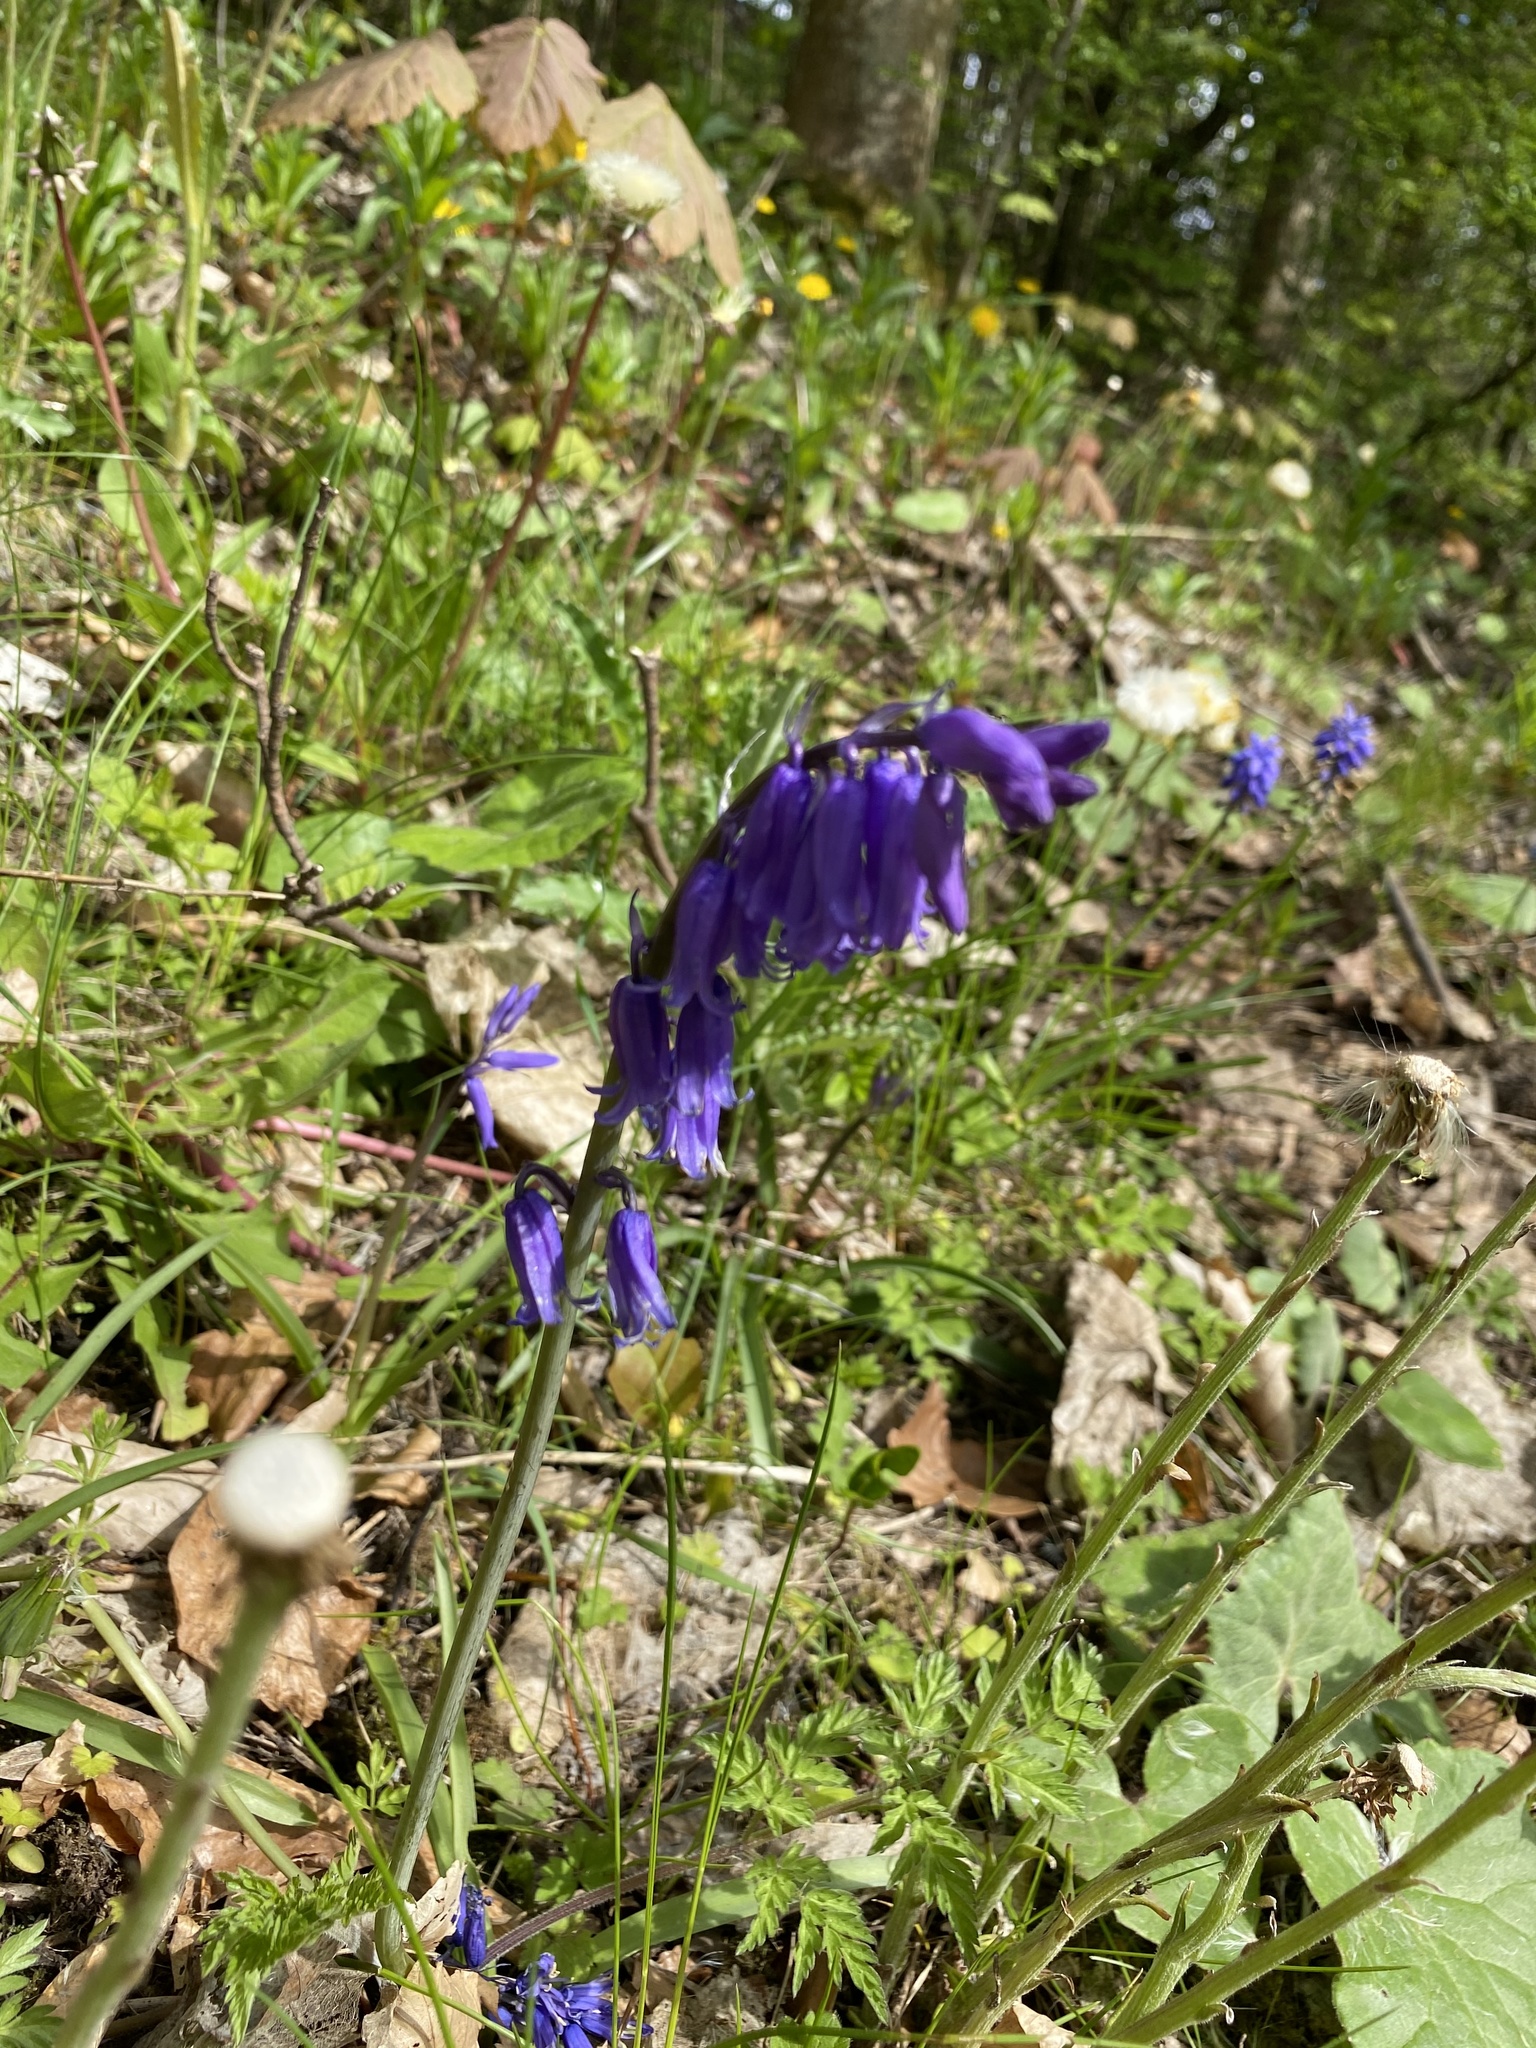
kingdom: Plantae
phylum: Tracheophyta
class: Liliopsida
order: Asparagales
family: Asparagaceae
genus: Hyacinthoides
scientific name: Hyacinthoides non-scripta
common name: Bluebell
